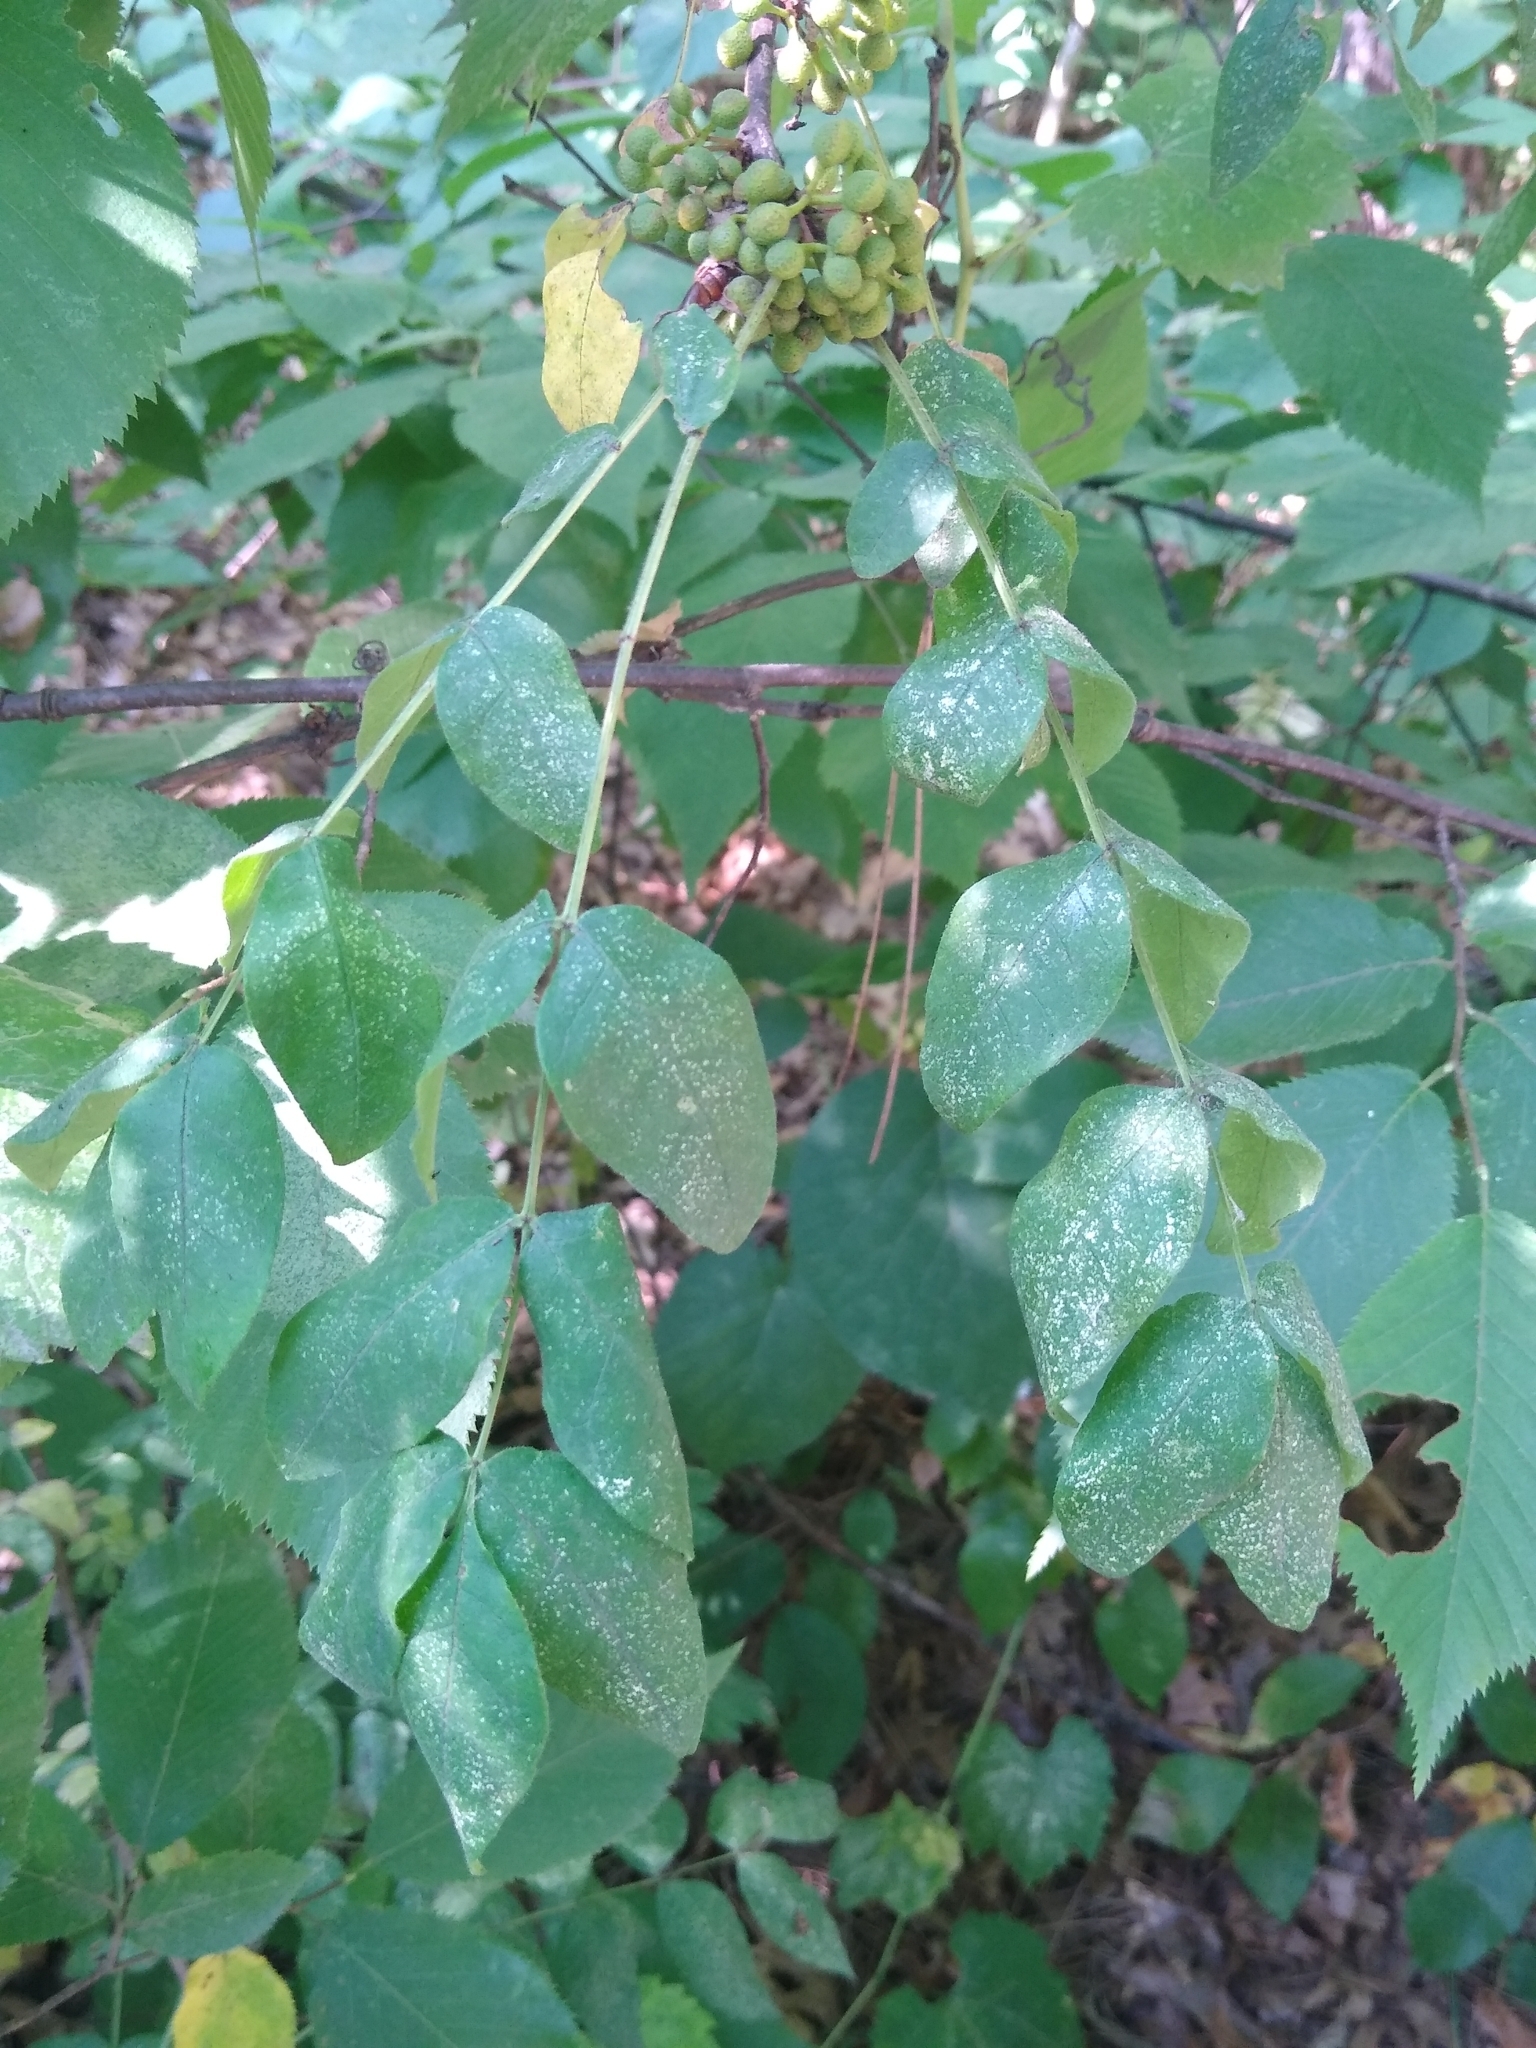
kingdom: Plantae
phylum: Tracheophyta
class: Magnoliopsida
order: Sapindales
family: Rutaceae
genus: Zanthoxylum
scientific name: Zanthoxylum americanum
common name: Northern prickly-ash
